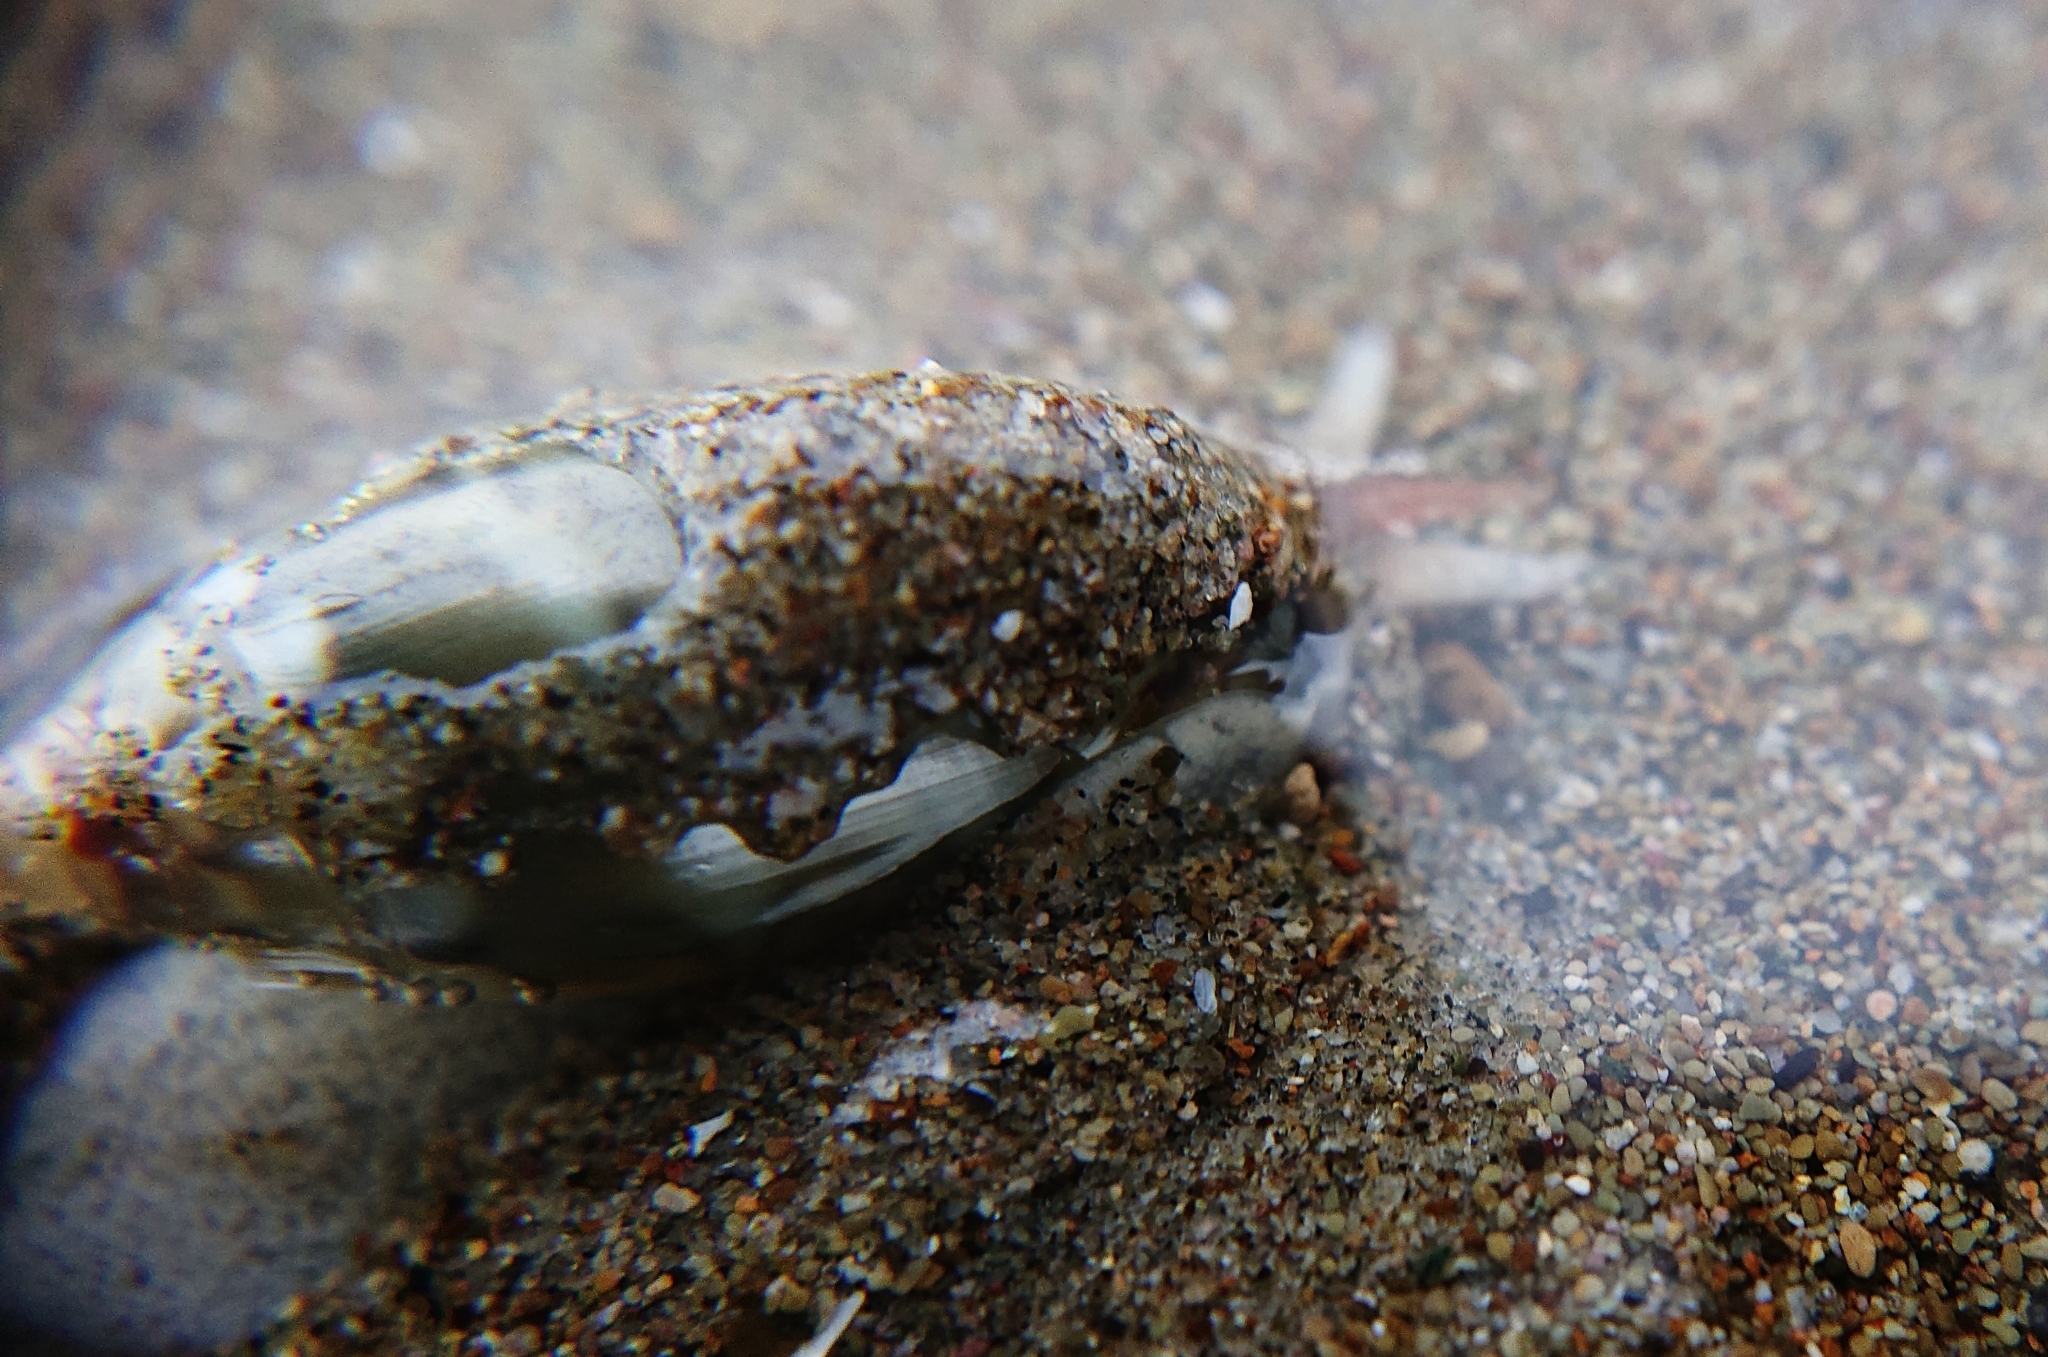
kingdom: Animalia
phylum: Mollusca
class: Gastropoda
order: Neogastropoda
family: Olividae
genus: Oliva
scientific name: Oliva undatella
